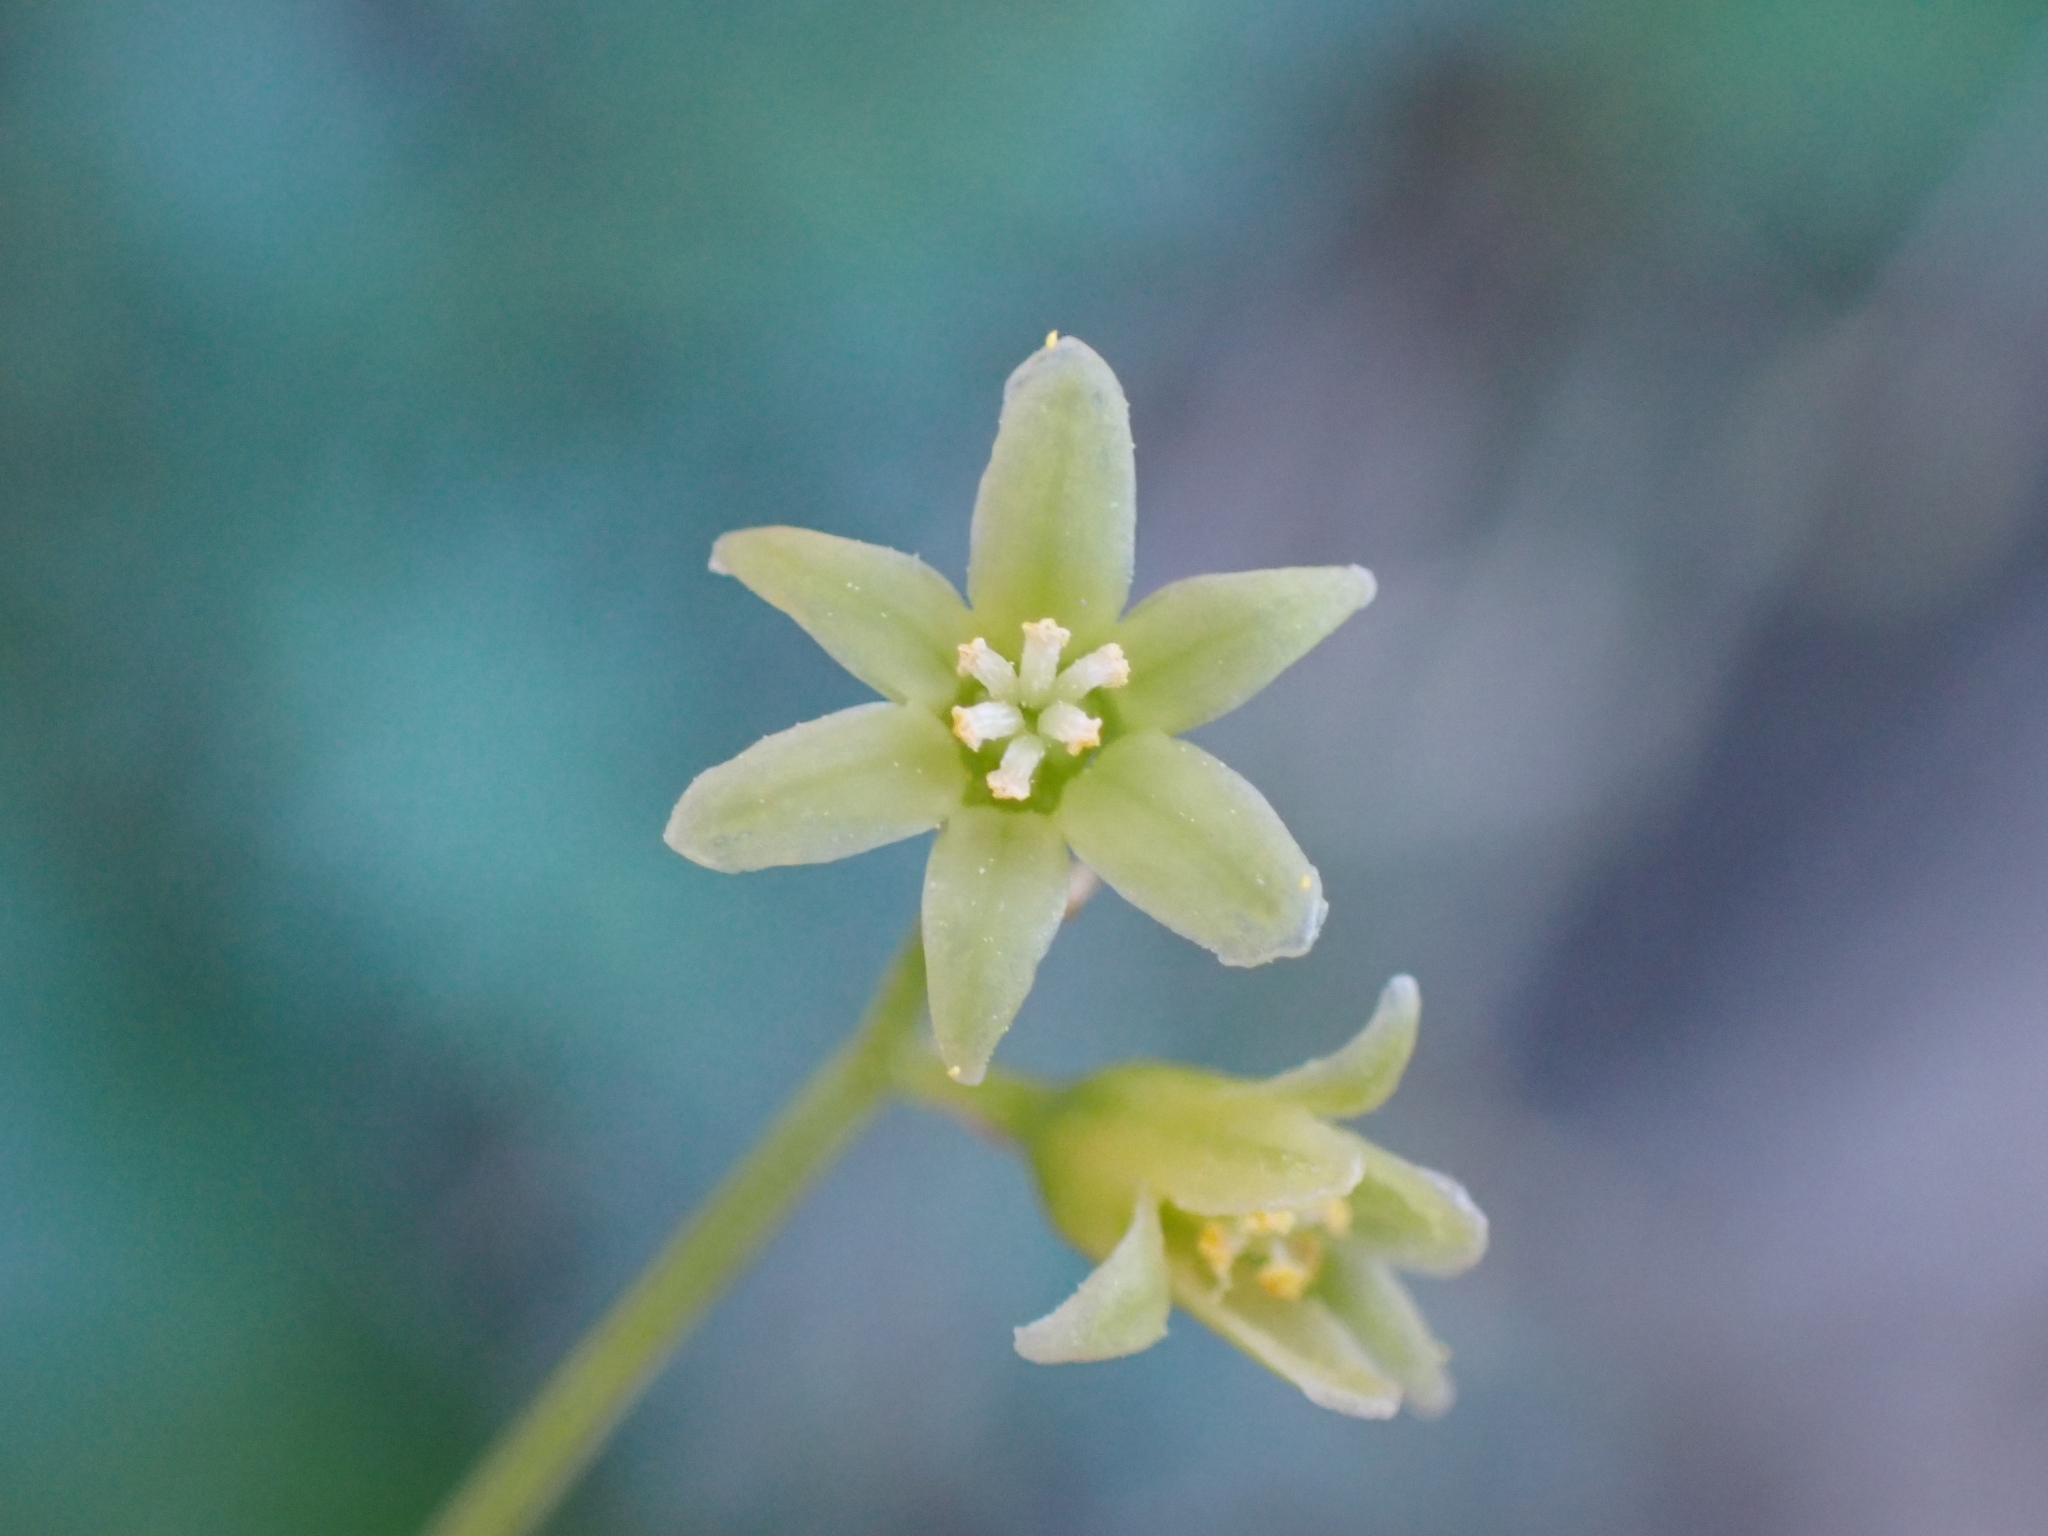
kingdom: Plantae
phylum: Tracheophyta
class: Liliopsida
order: Dioscoreales
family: Dioscoreaceae
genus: Dioscorea
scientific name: Dioscorea communis
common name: Black-bindweed
